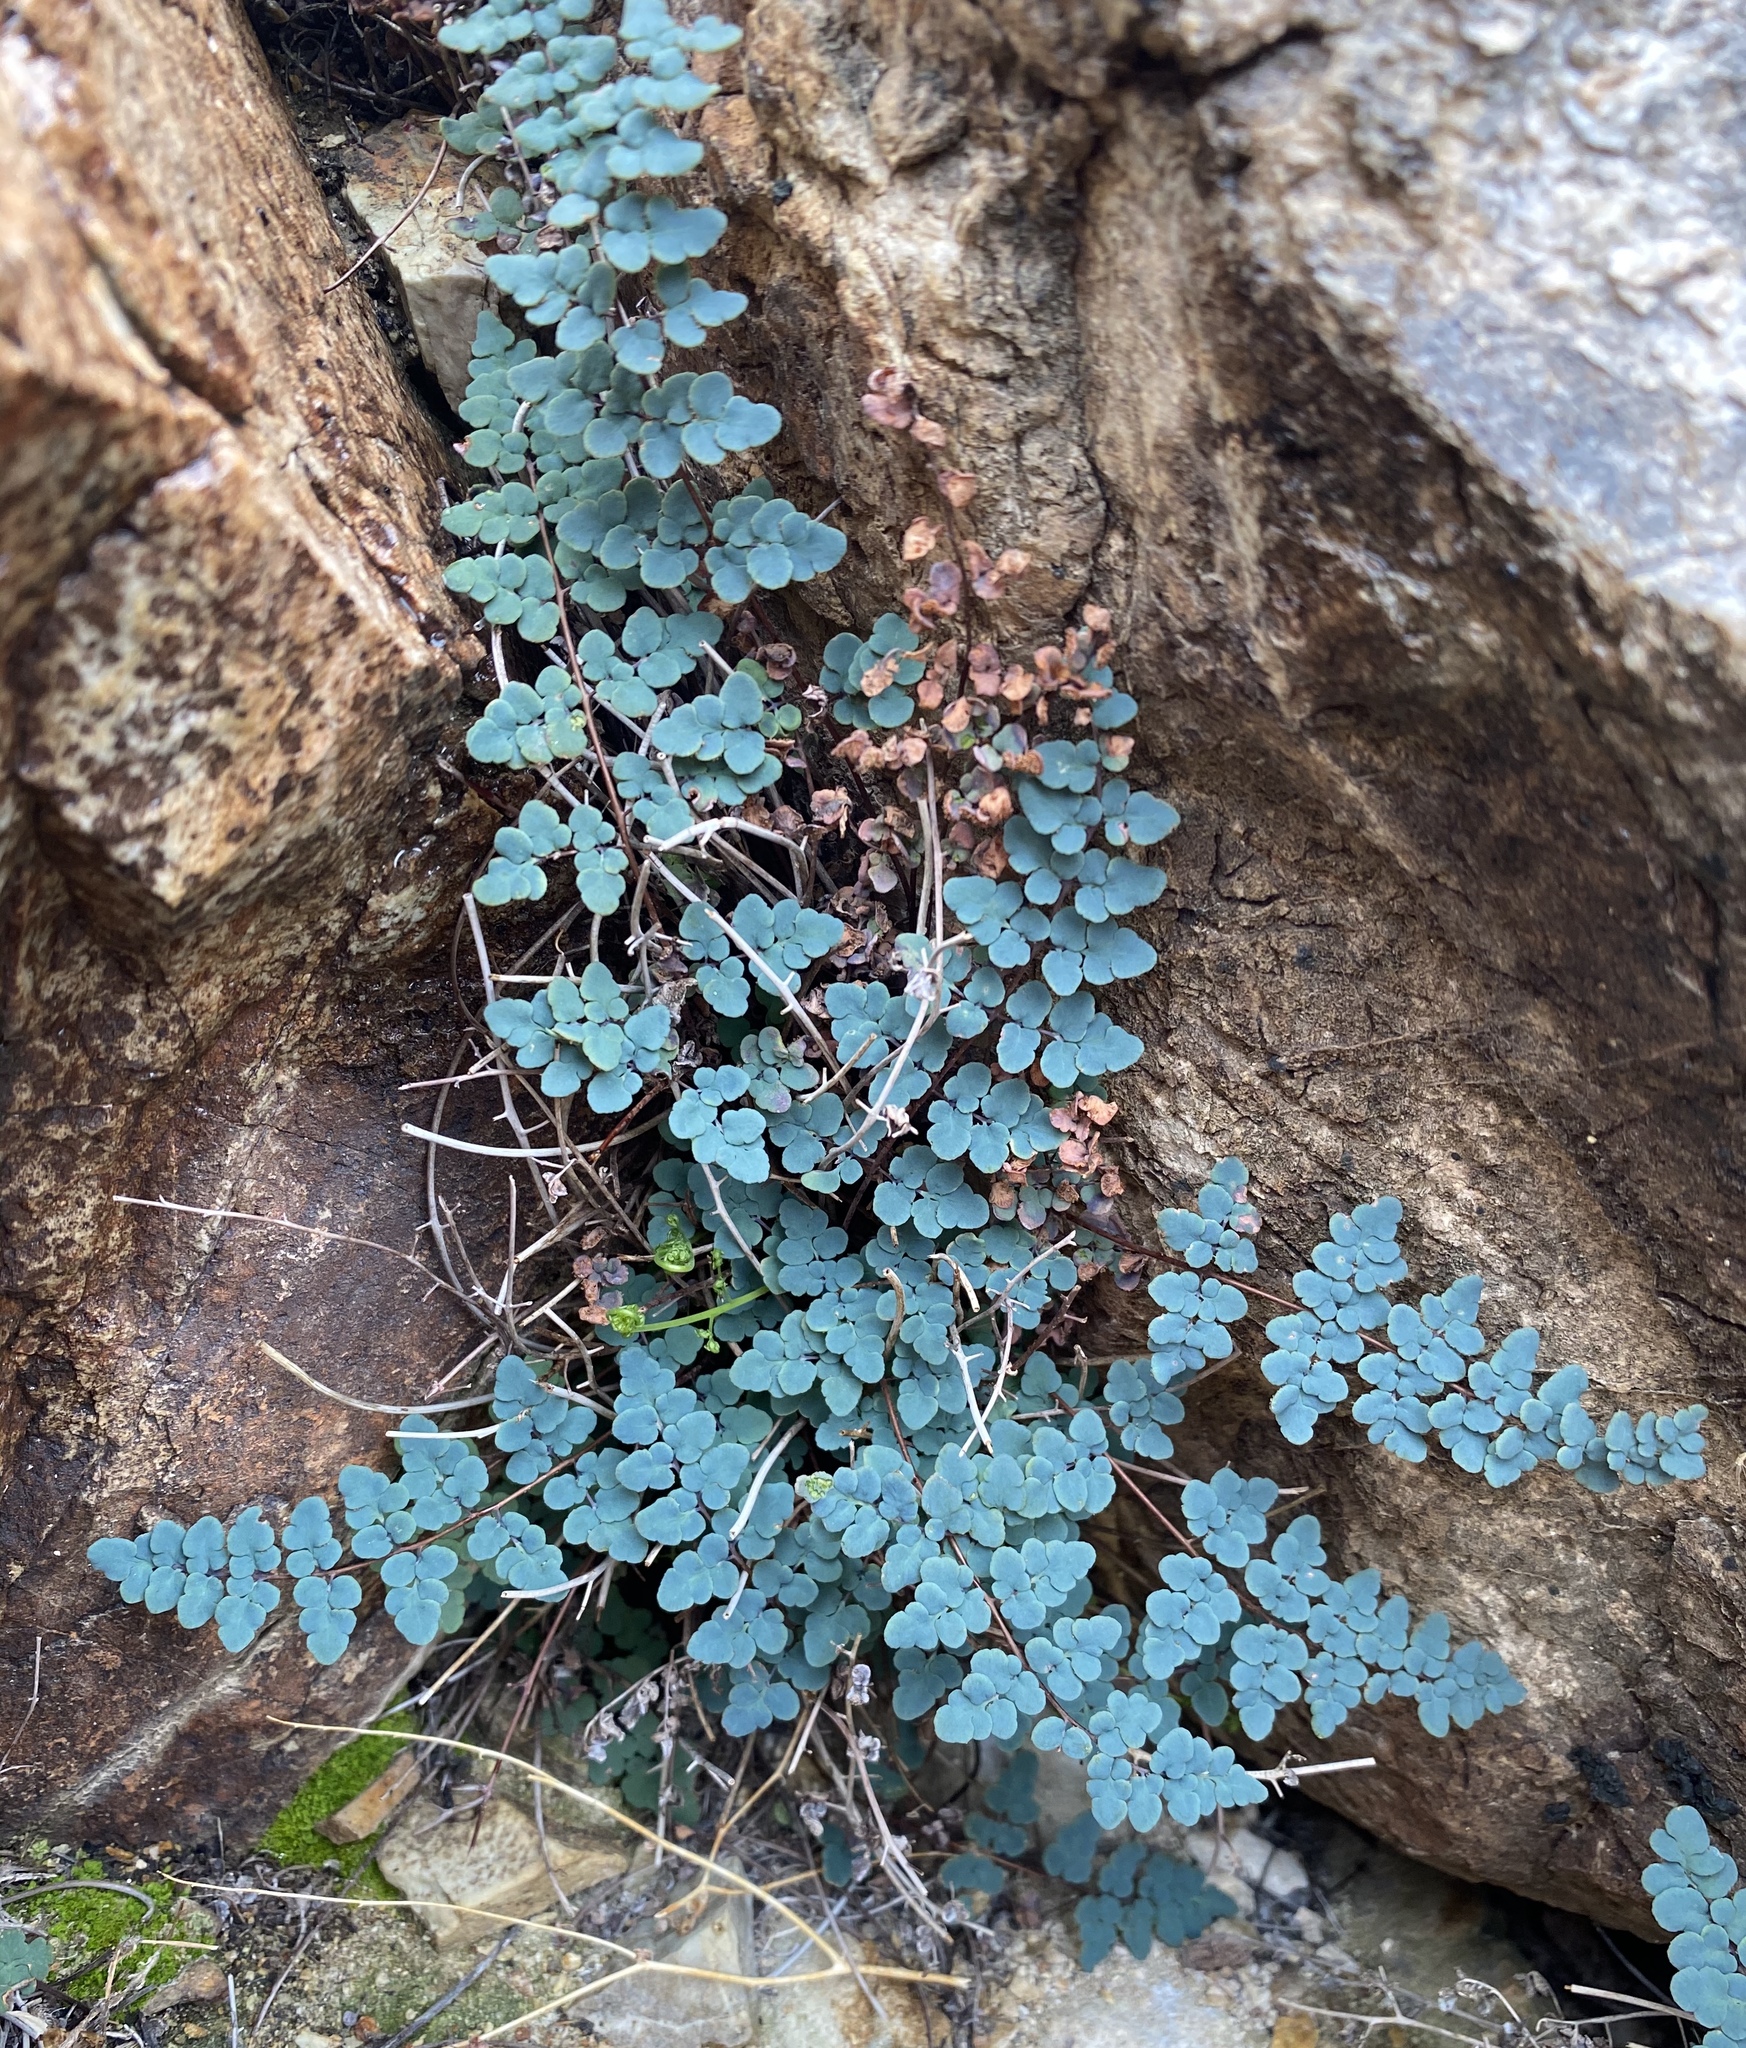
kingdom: Plantae
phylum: Tracheophyta
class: Polypodiopsida
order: Polypodiales
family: Pteridaceae
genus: Argyrochosma
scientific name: Argyrochosma jonesii
